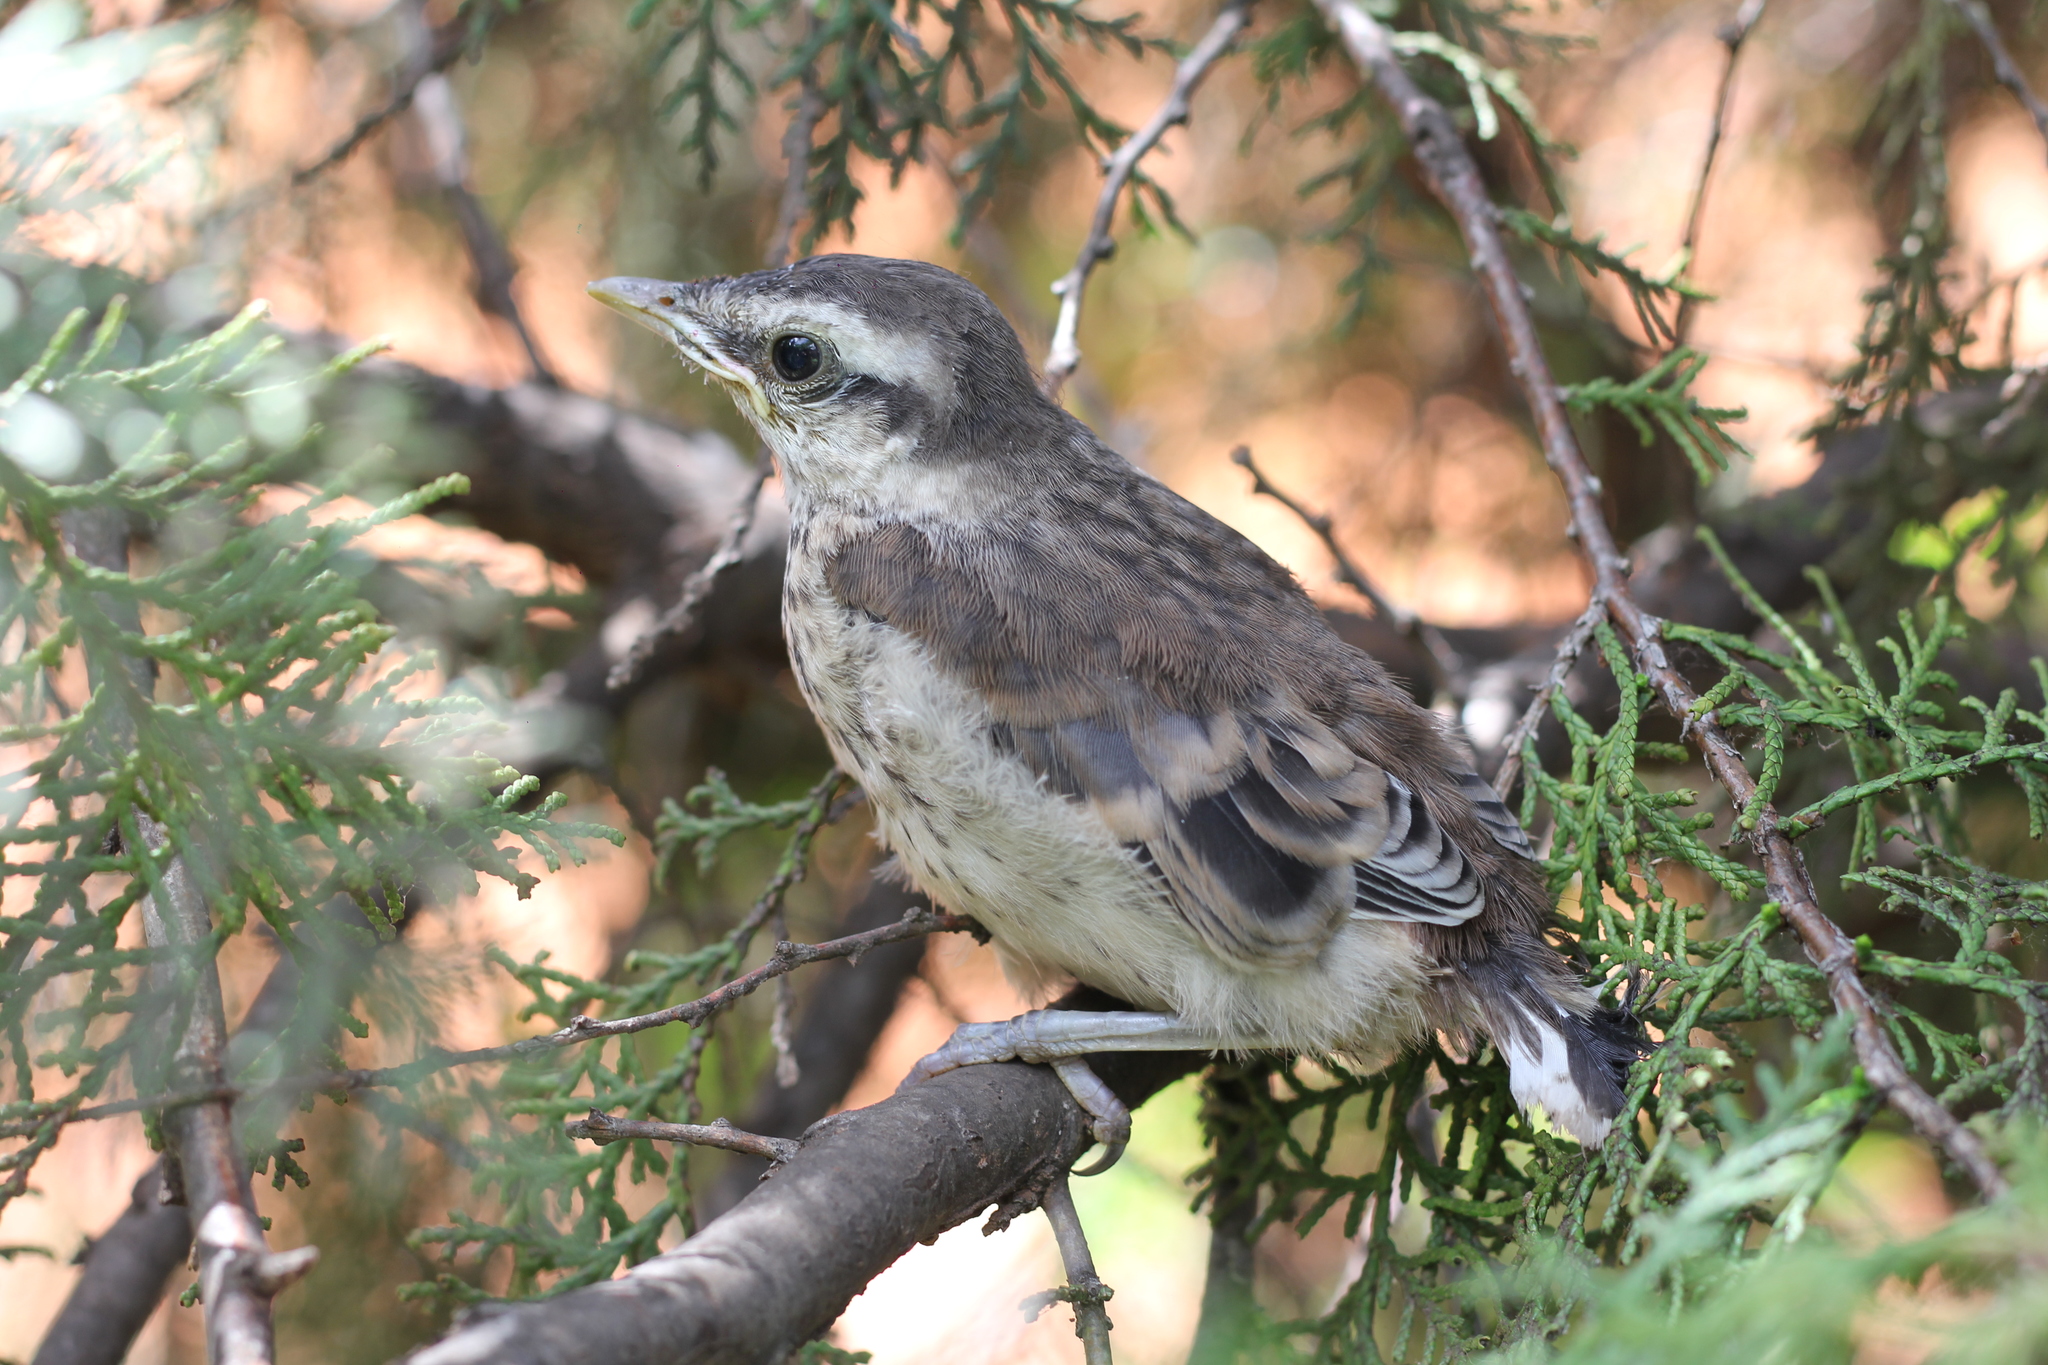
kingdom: Animalia
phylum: Chordata
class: Aves
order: Passeriformes
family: Mimidae
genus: Mimus
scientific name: Mimus saturninus
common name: Chalk-browed mockingbird
